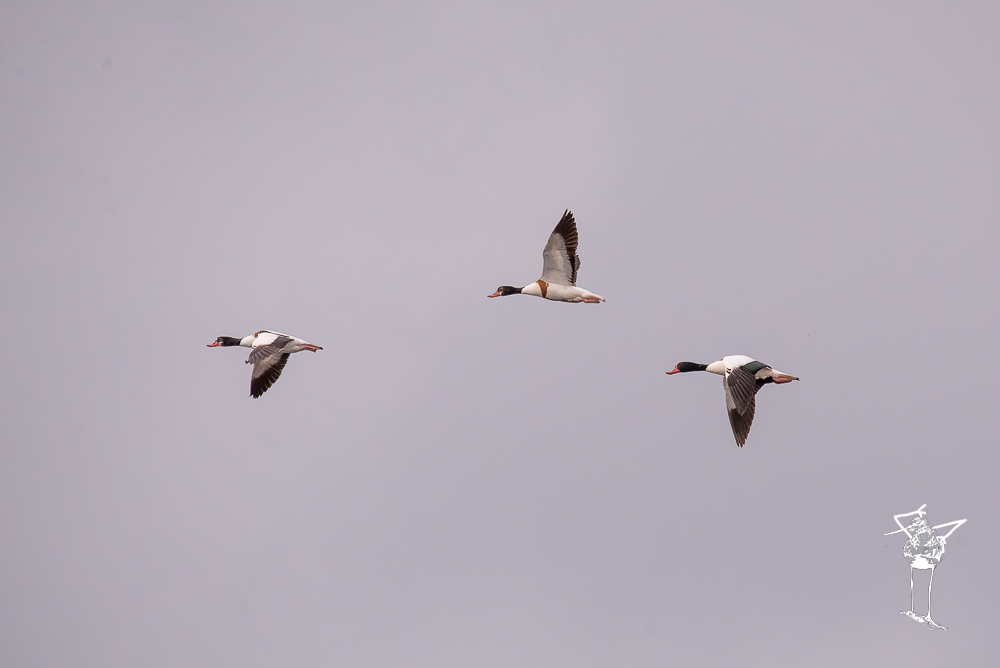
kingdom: Animalia
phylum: Chordata
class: Aves
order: Anseriformes
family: Anatidae
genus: Tadorna
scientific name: Tadorna tadorna
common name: Common shelduck
